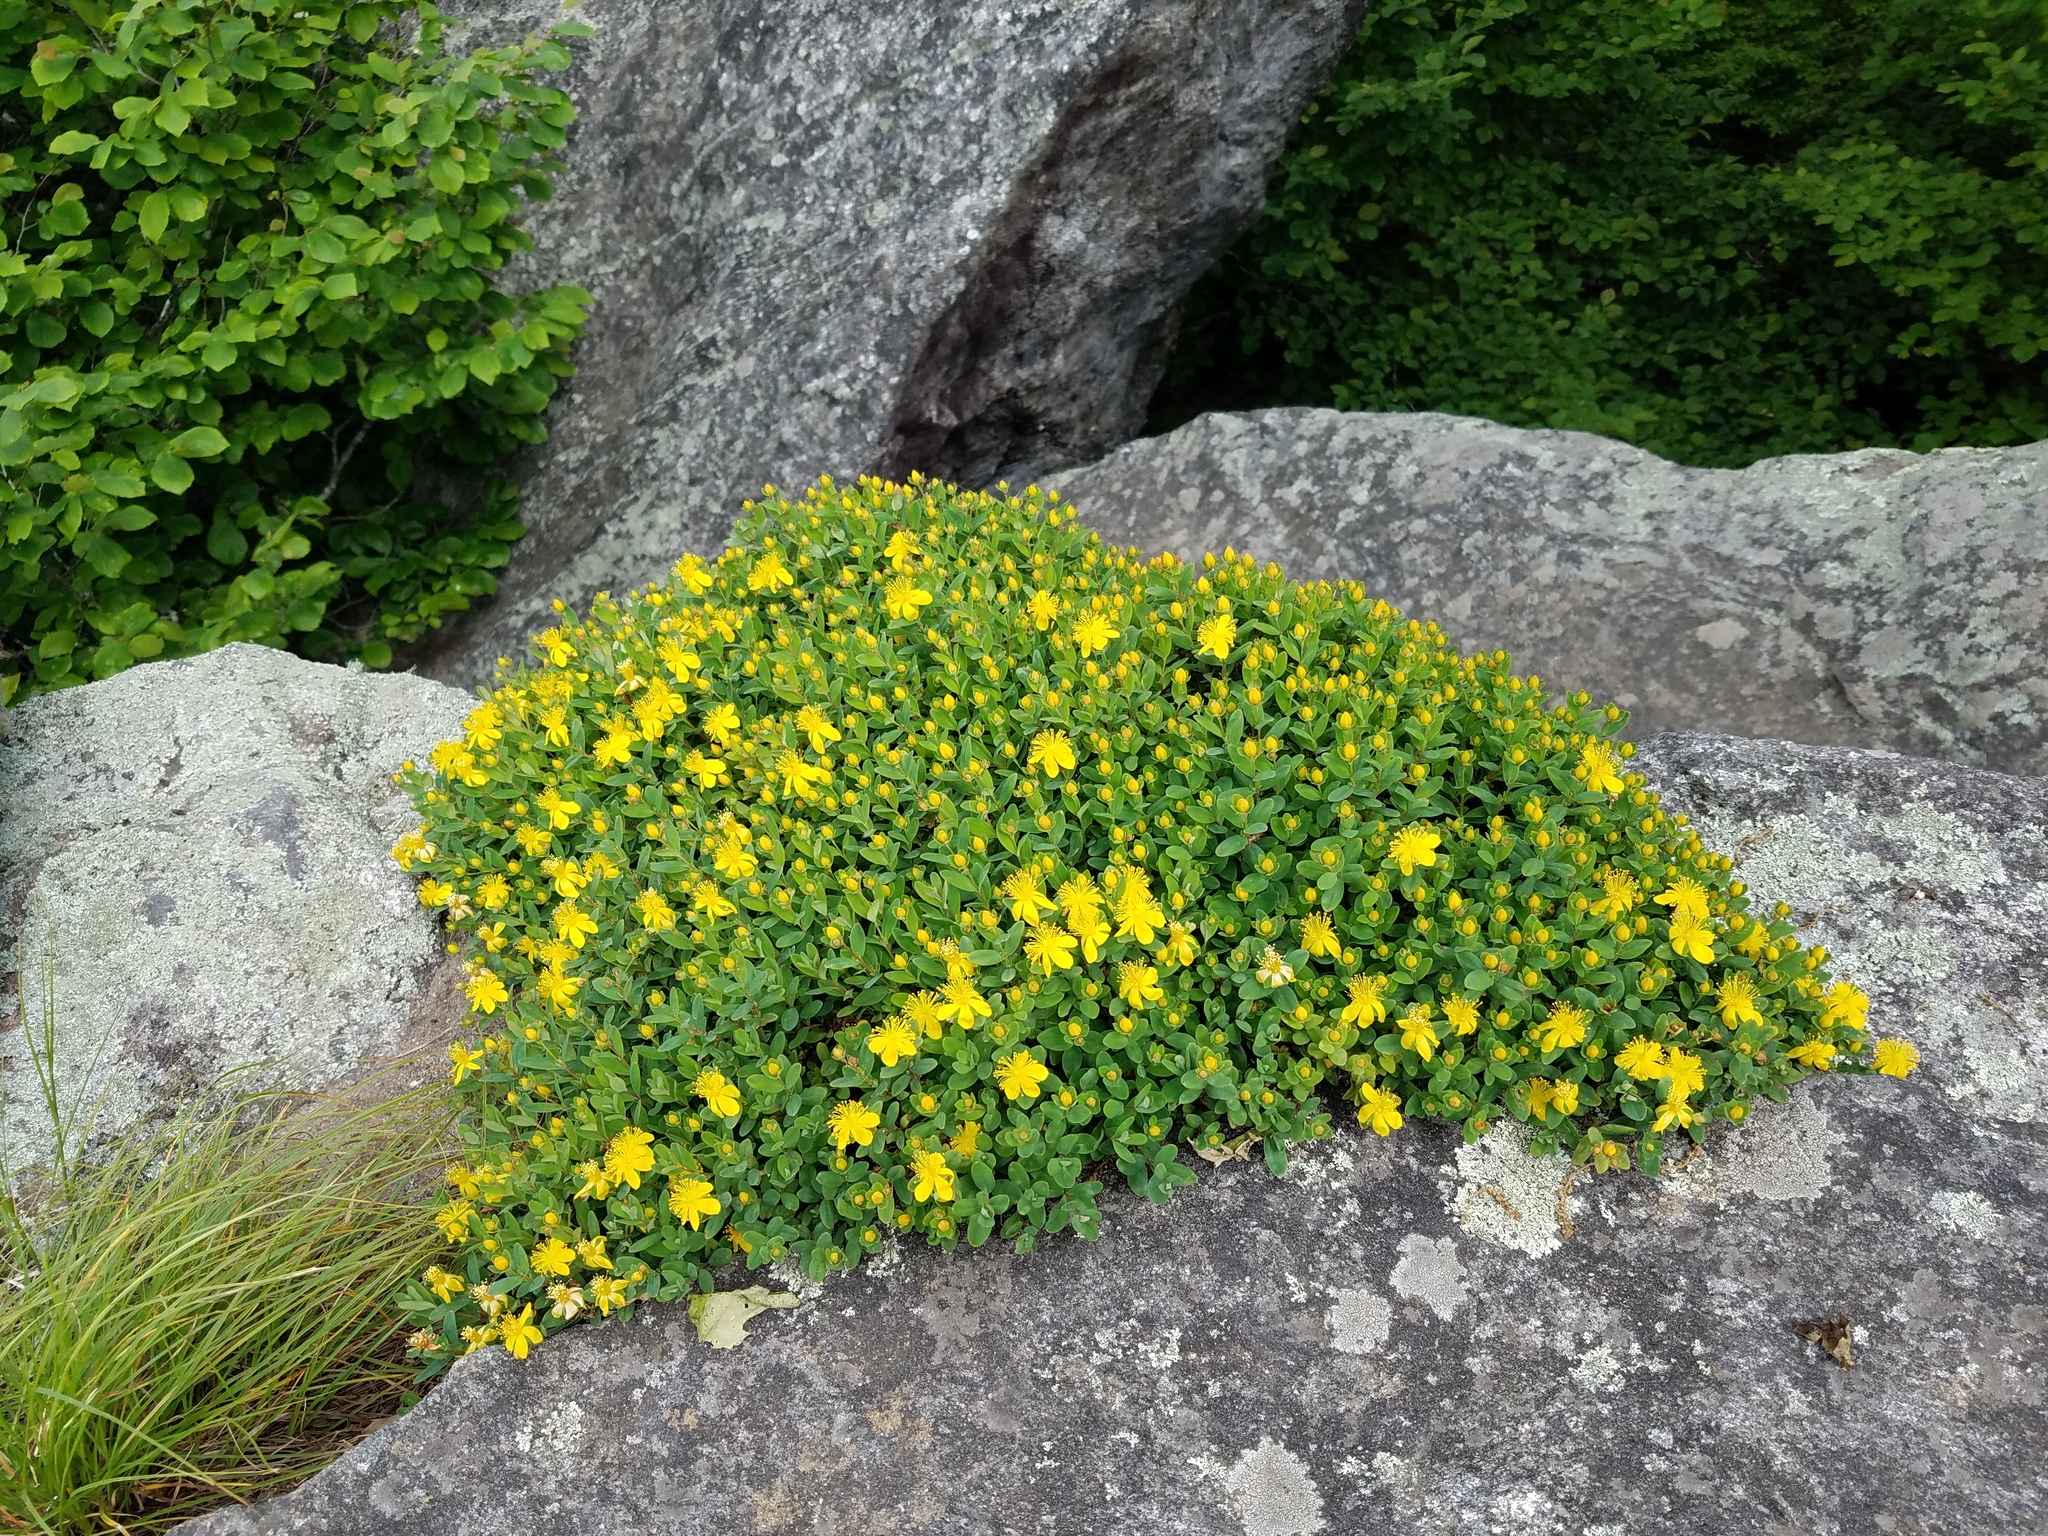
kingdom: Plantae
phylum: Tracheophyta
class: Magnoliopsida
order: Malpighiales
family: Hypericaceae
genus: Hypericum
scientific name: Hypericum buckleyi
